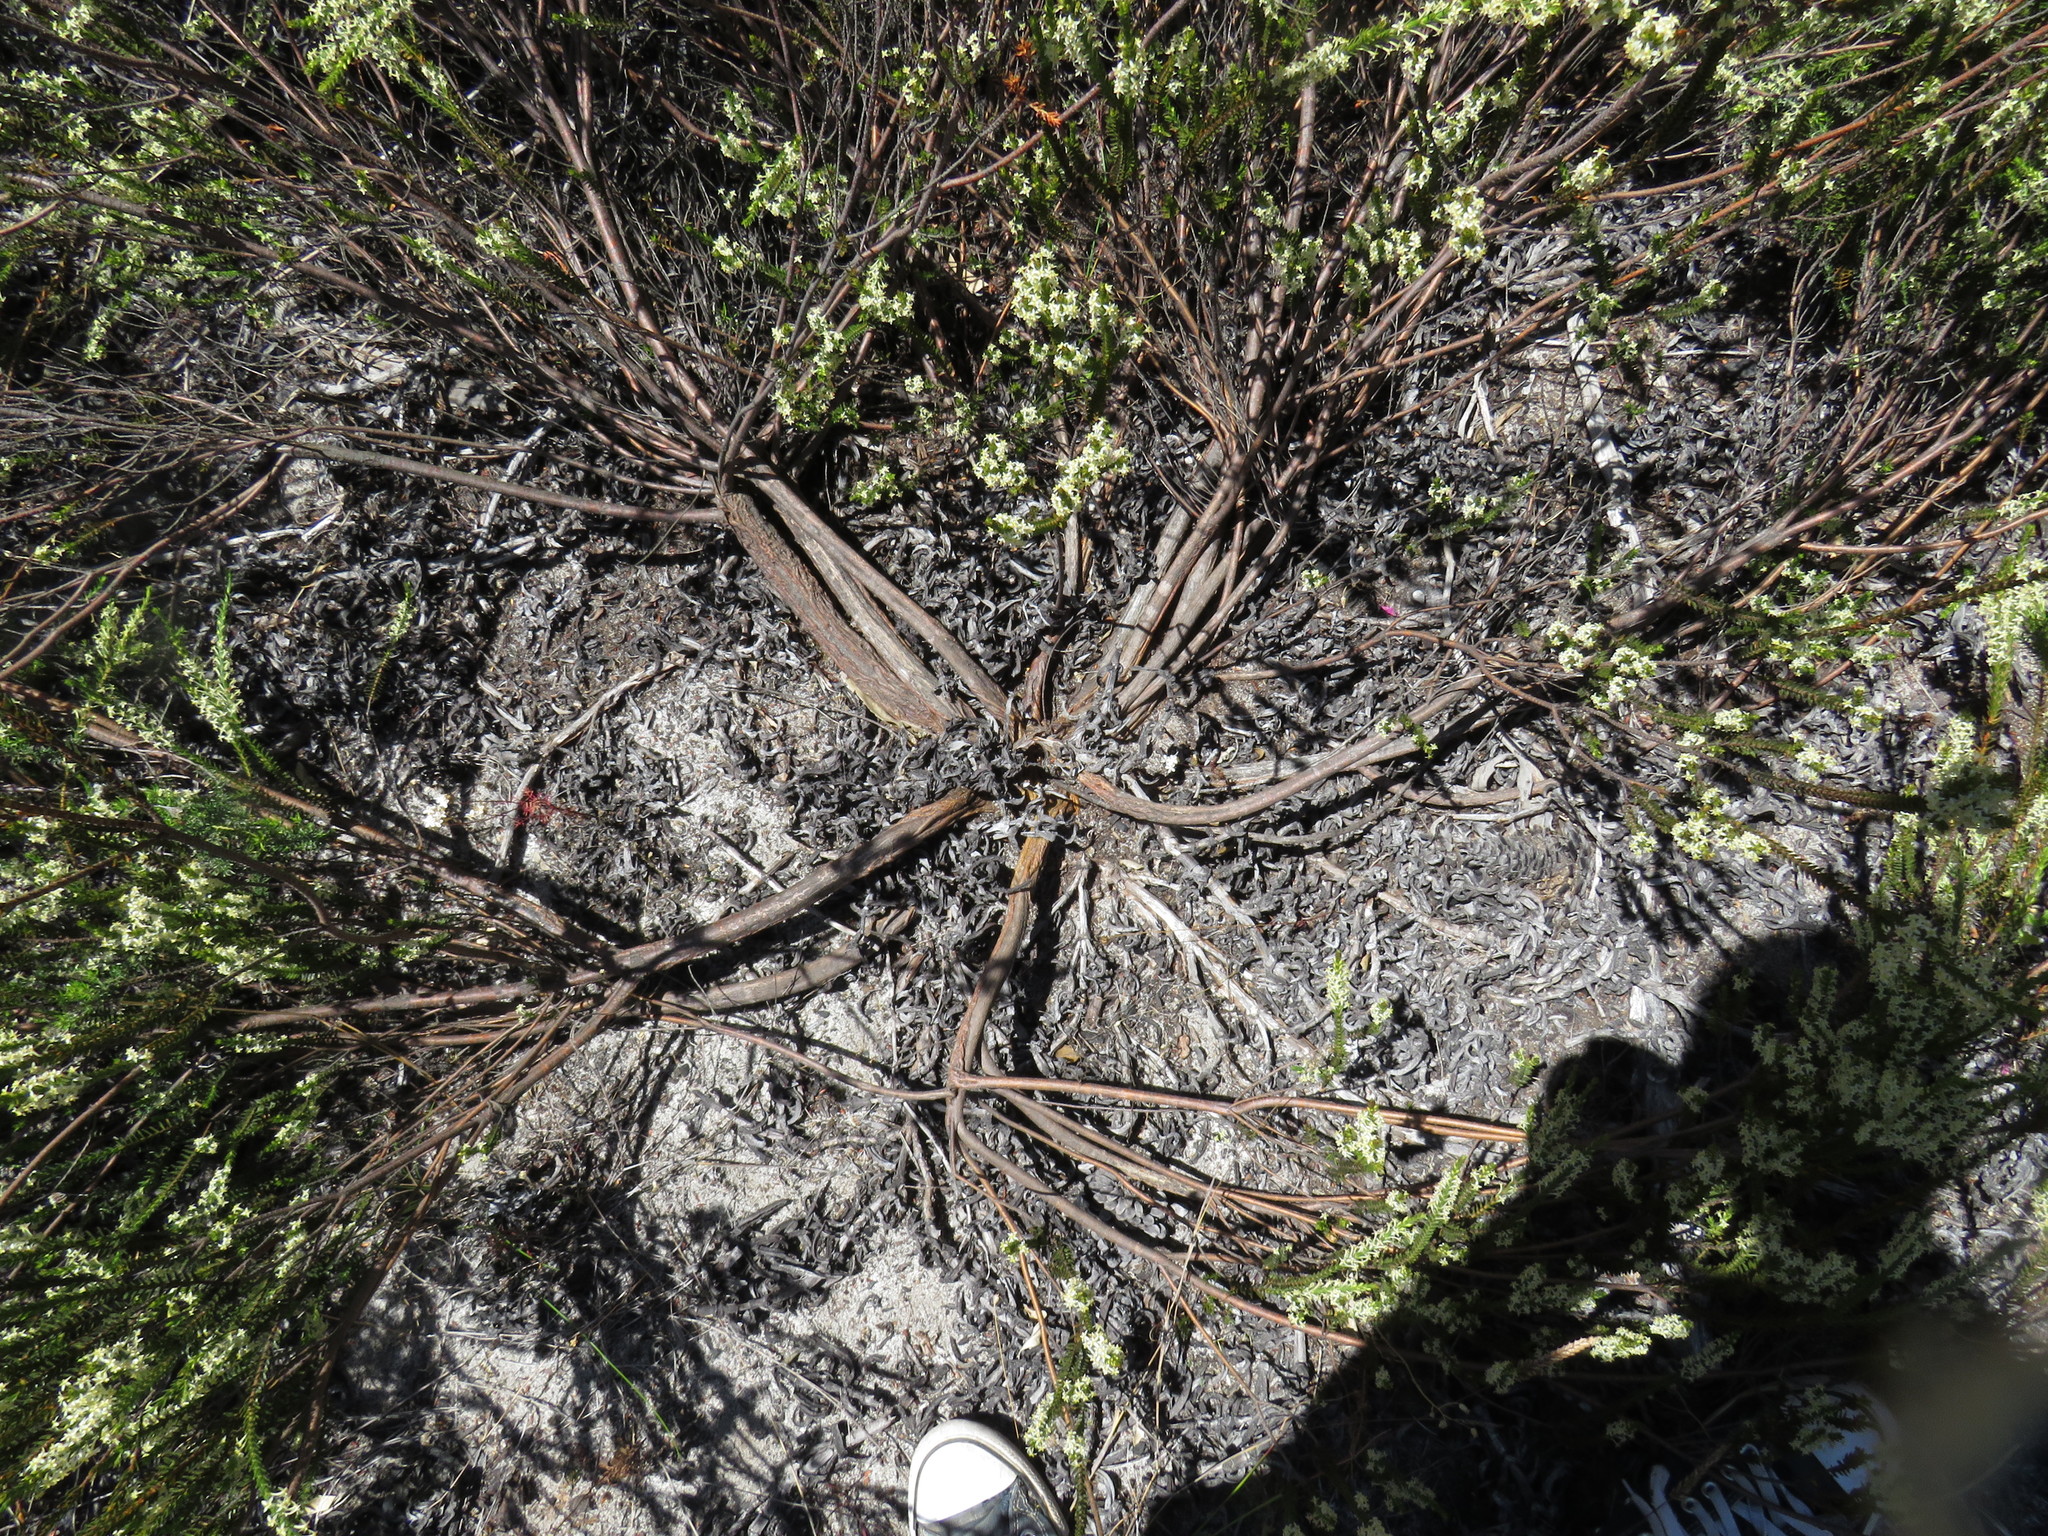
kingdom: Plantae
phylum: Tracheophyta
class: Magnoliopsida
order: Malvales
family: Thymelaeaceae
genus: Struthiola
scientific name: Struthiola striata
